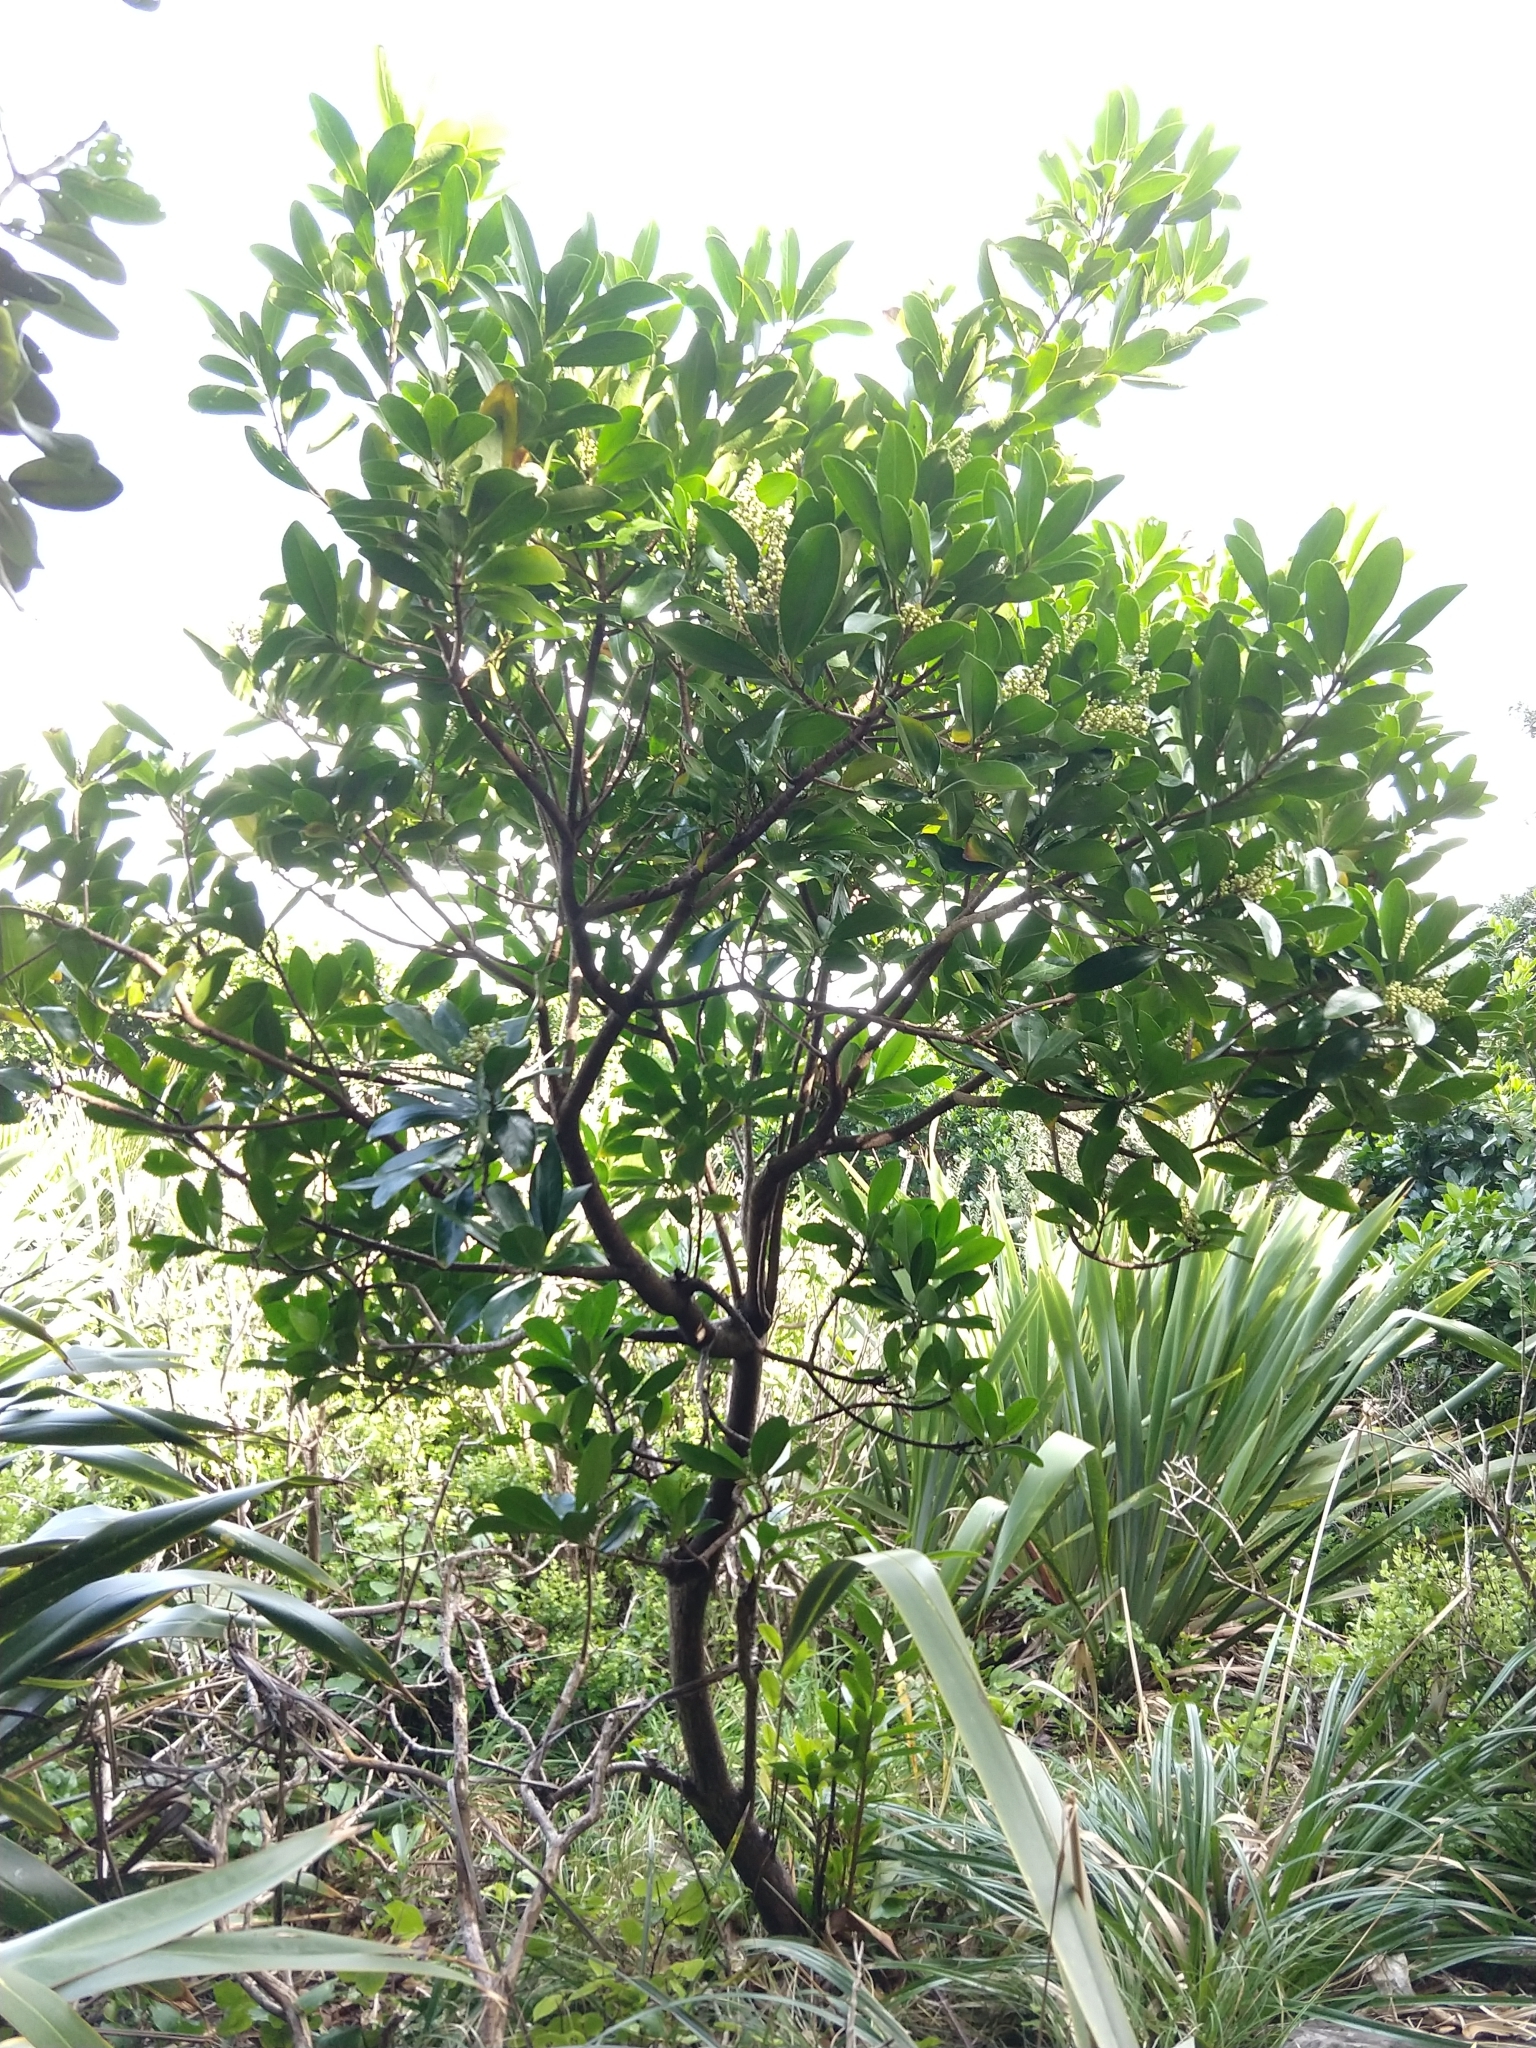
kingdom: Plantae
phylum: Tracheophyta
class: Magnoliopsida
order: Cucurbitales
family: Corynocarpaceae
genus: Corynocarpus
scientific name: Corynocarpus laevigatus
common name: New zealand laurel
